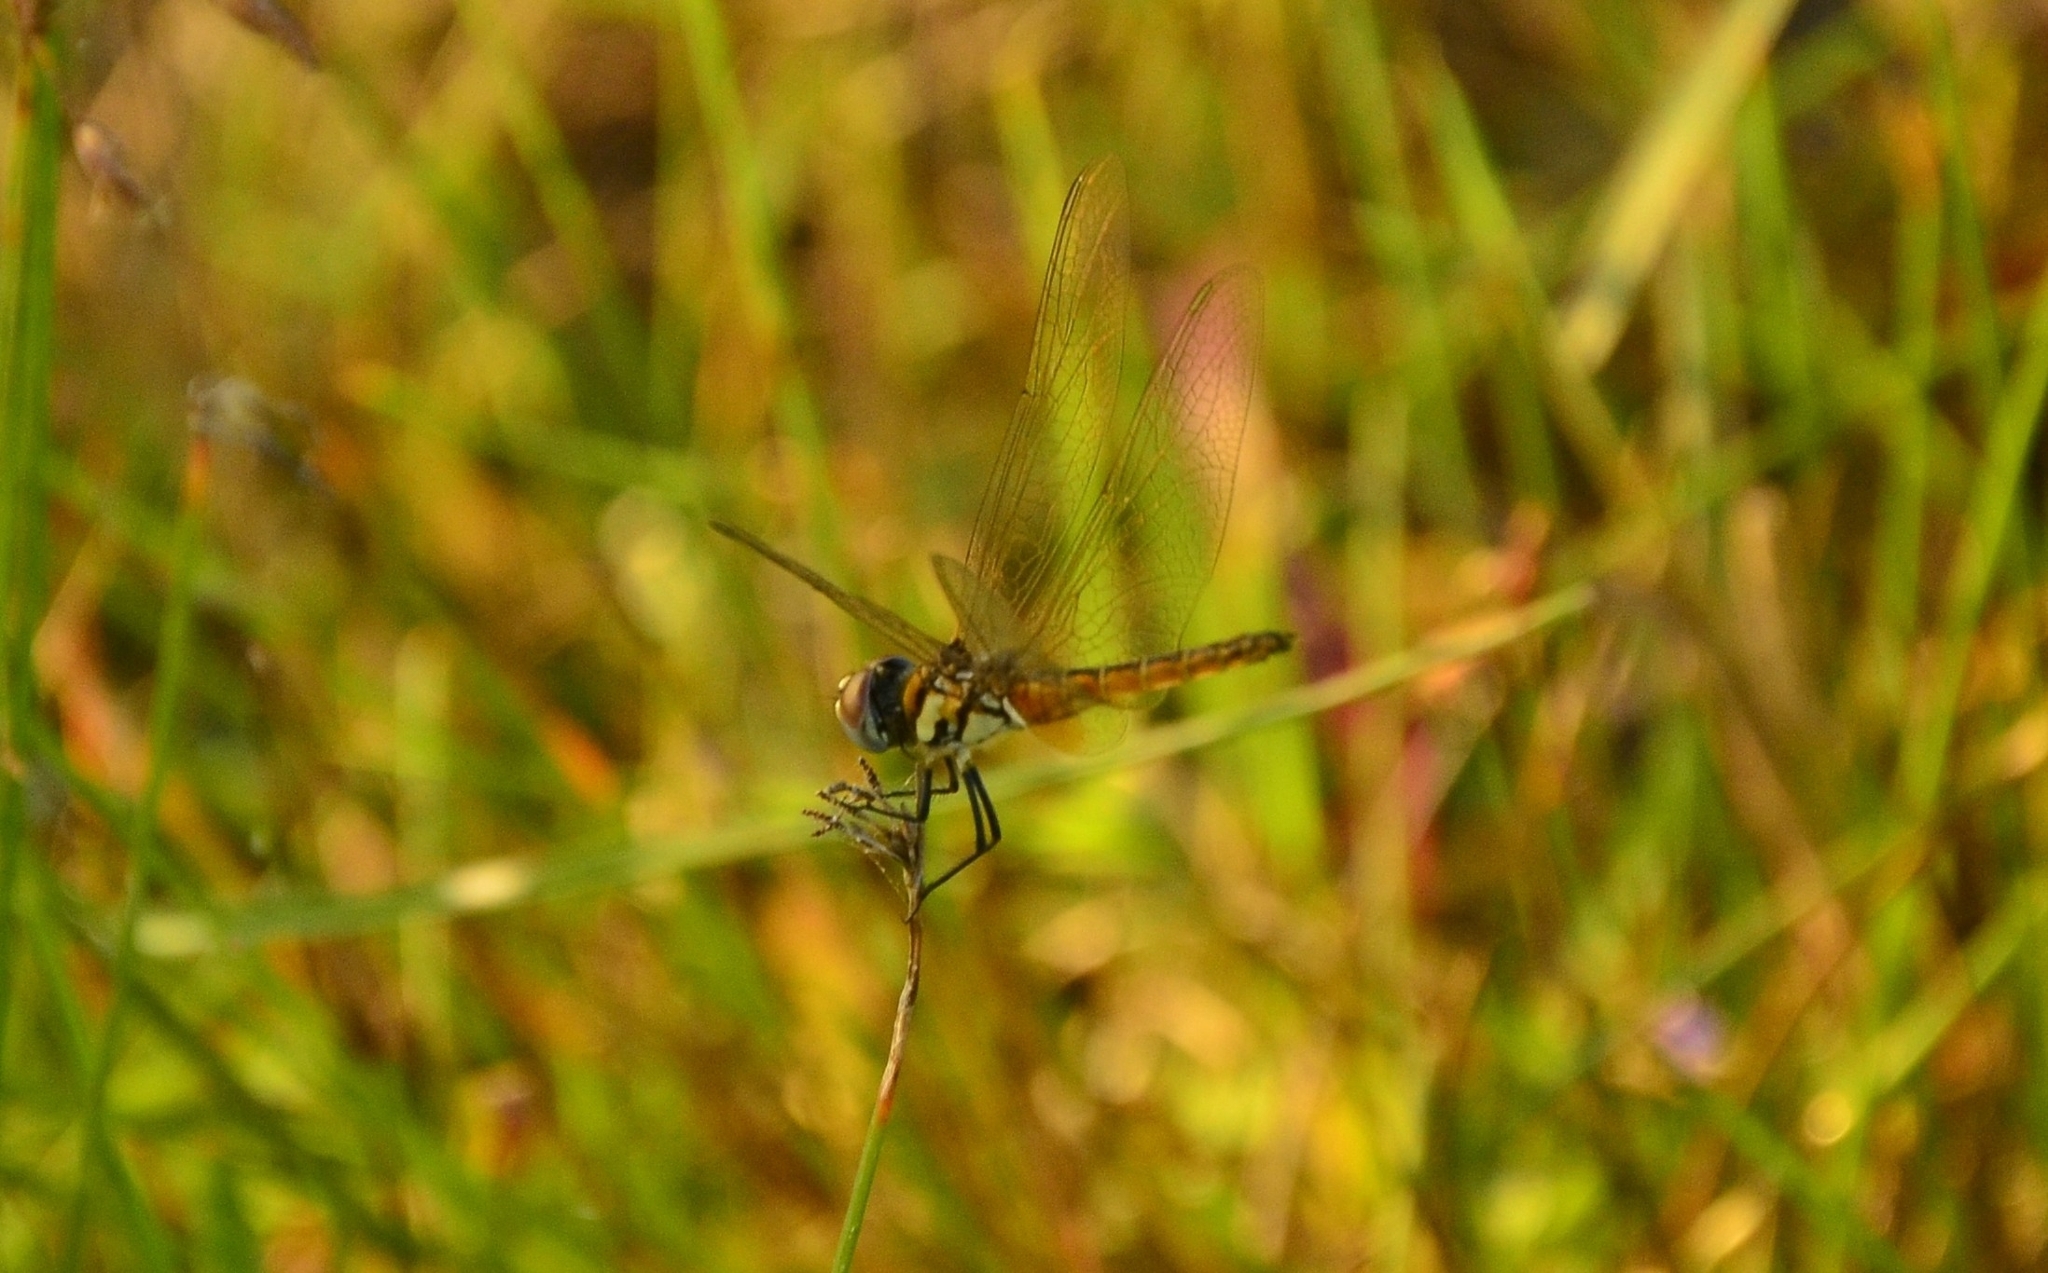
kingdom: Animalia
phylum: Arthropoda
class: Insecta
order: Odonata
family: Libellulidae
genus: Macrodiplax
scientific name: Macrodiplax cora
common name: Coastal glider
